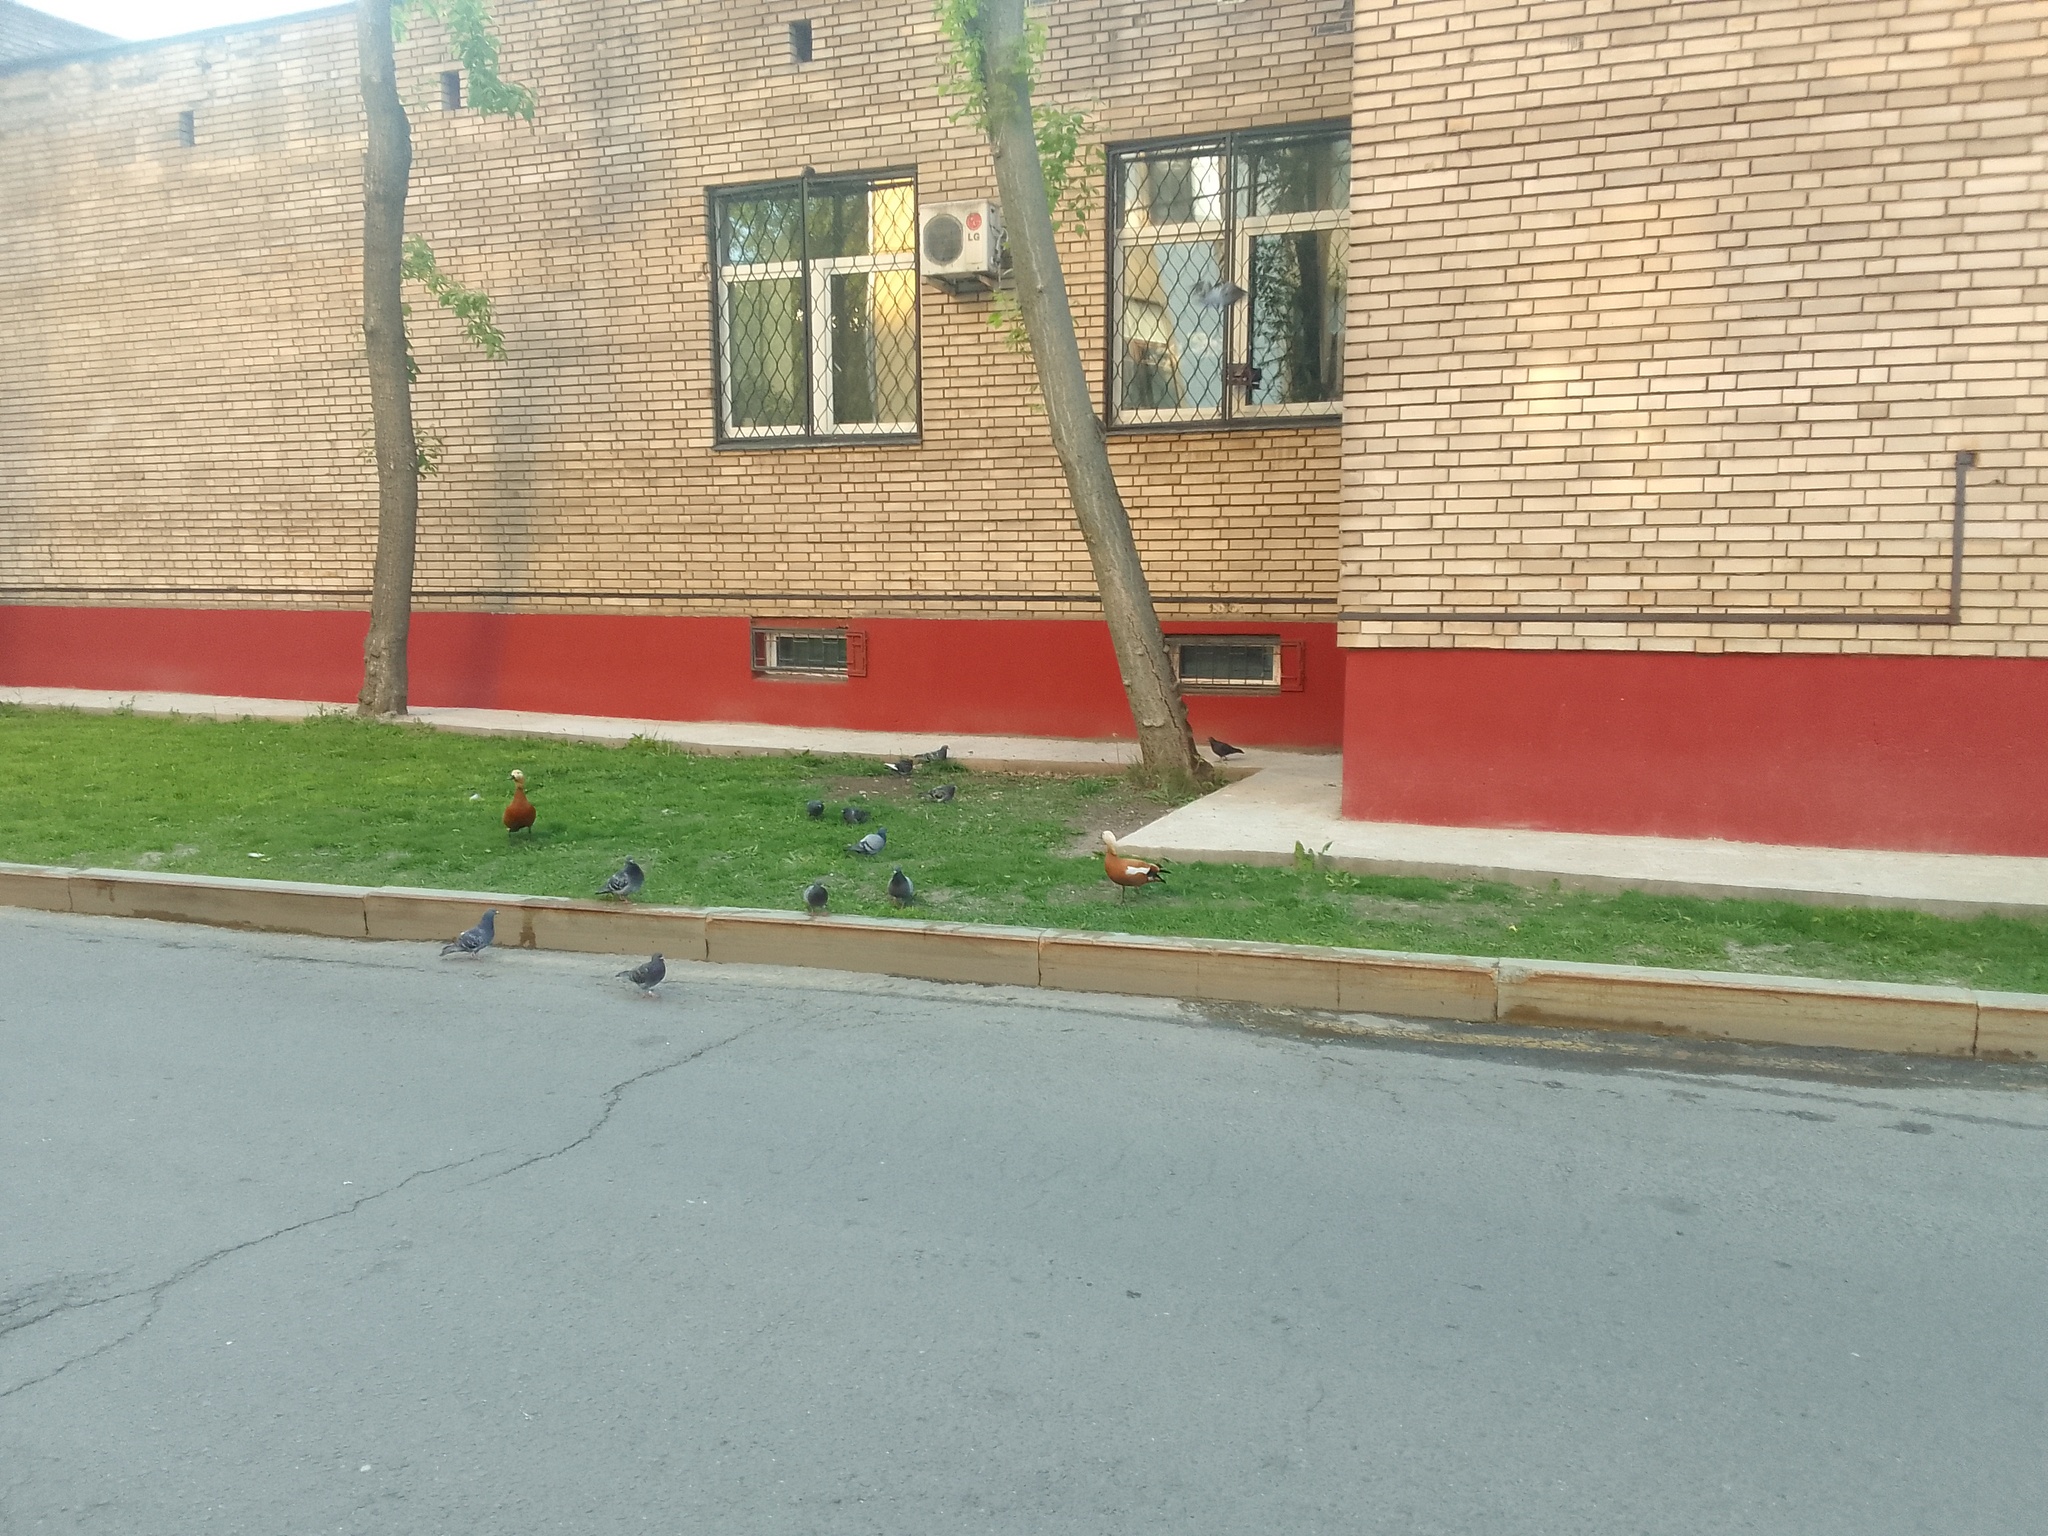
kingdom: Animalia
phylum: Chordata
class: Aves
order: Anseriformes
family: Anatidae
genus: Tadorna
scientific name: Tadorna ferruginea
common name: Ruddy shelduck
